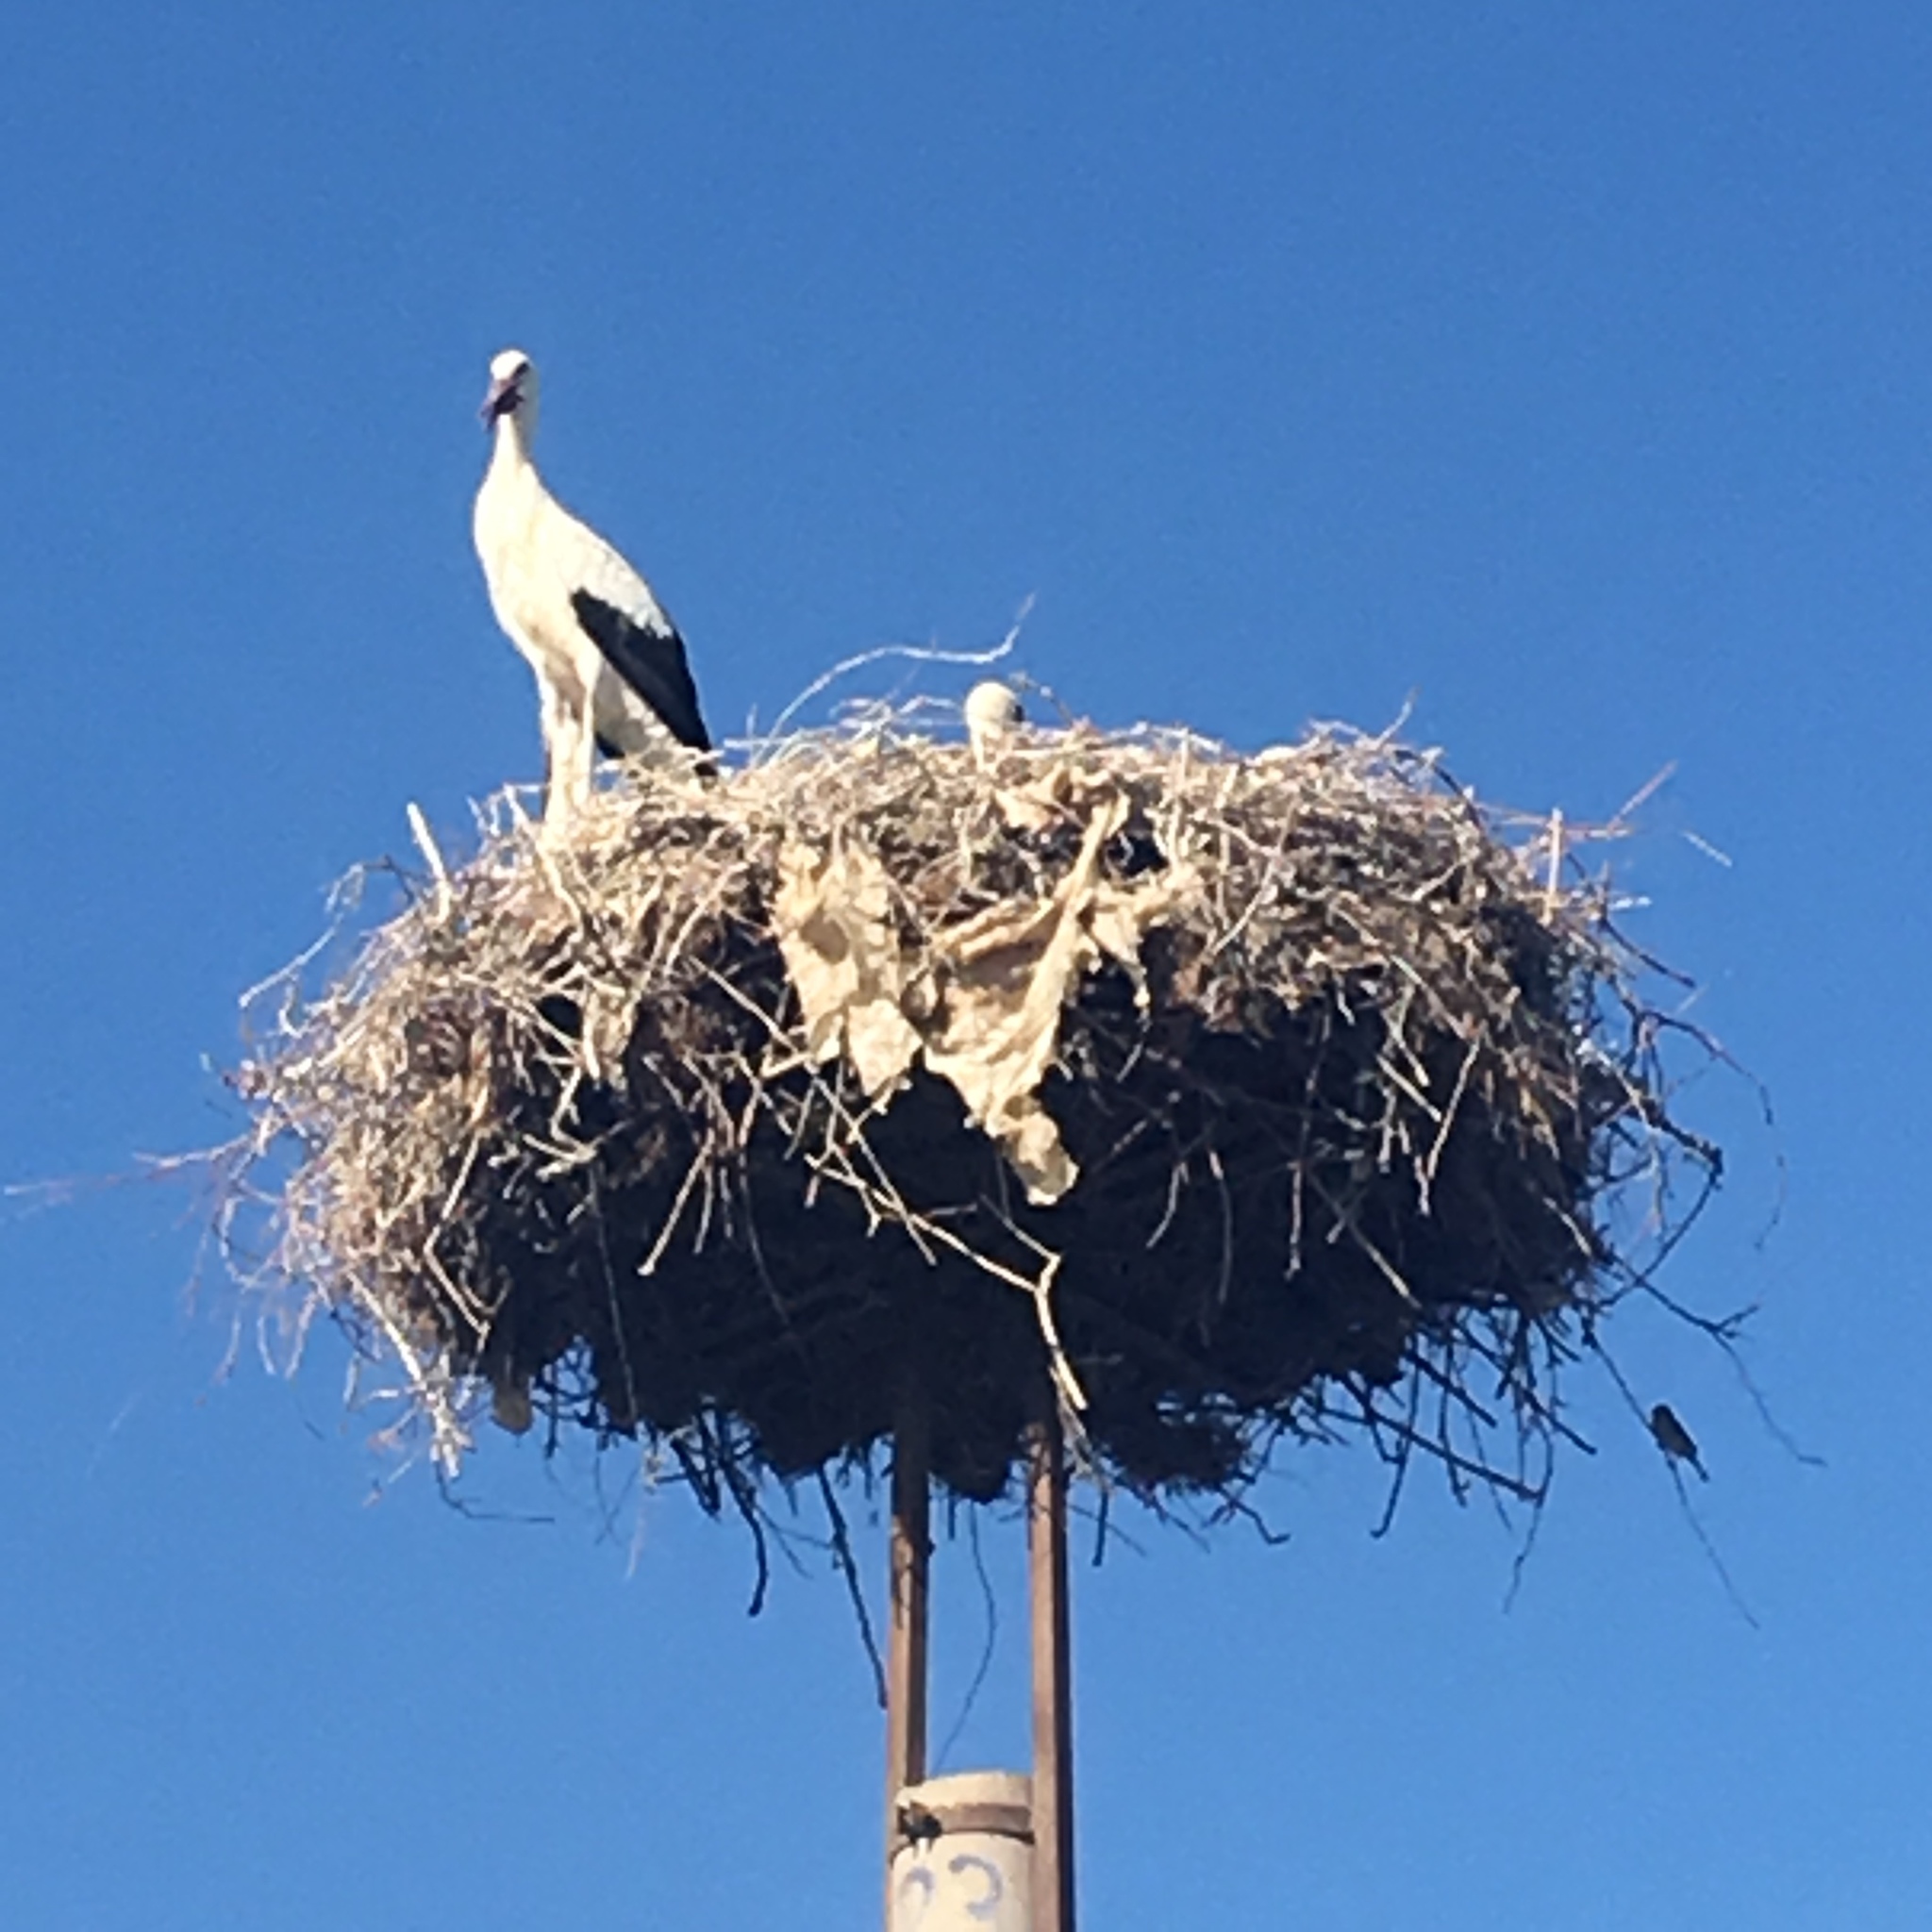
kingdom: Animalia
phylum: Chordata
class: Aves
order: Ciconiiformes
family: Ciconiidae
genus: Ciconia
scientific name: Ciconia ciconia
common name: White stork
